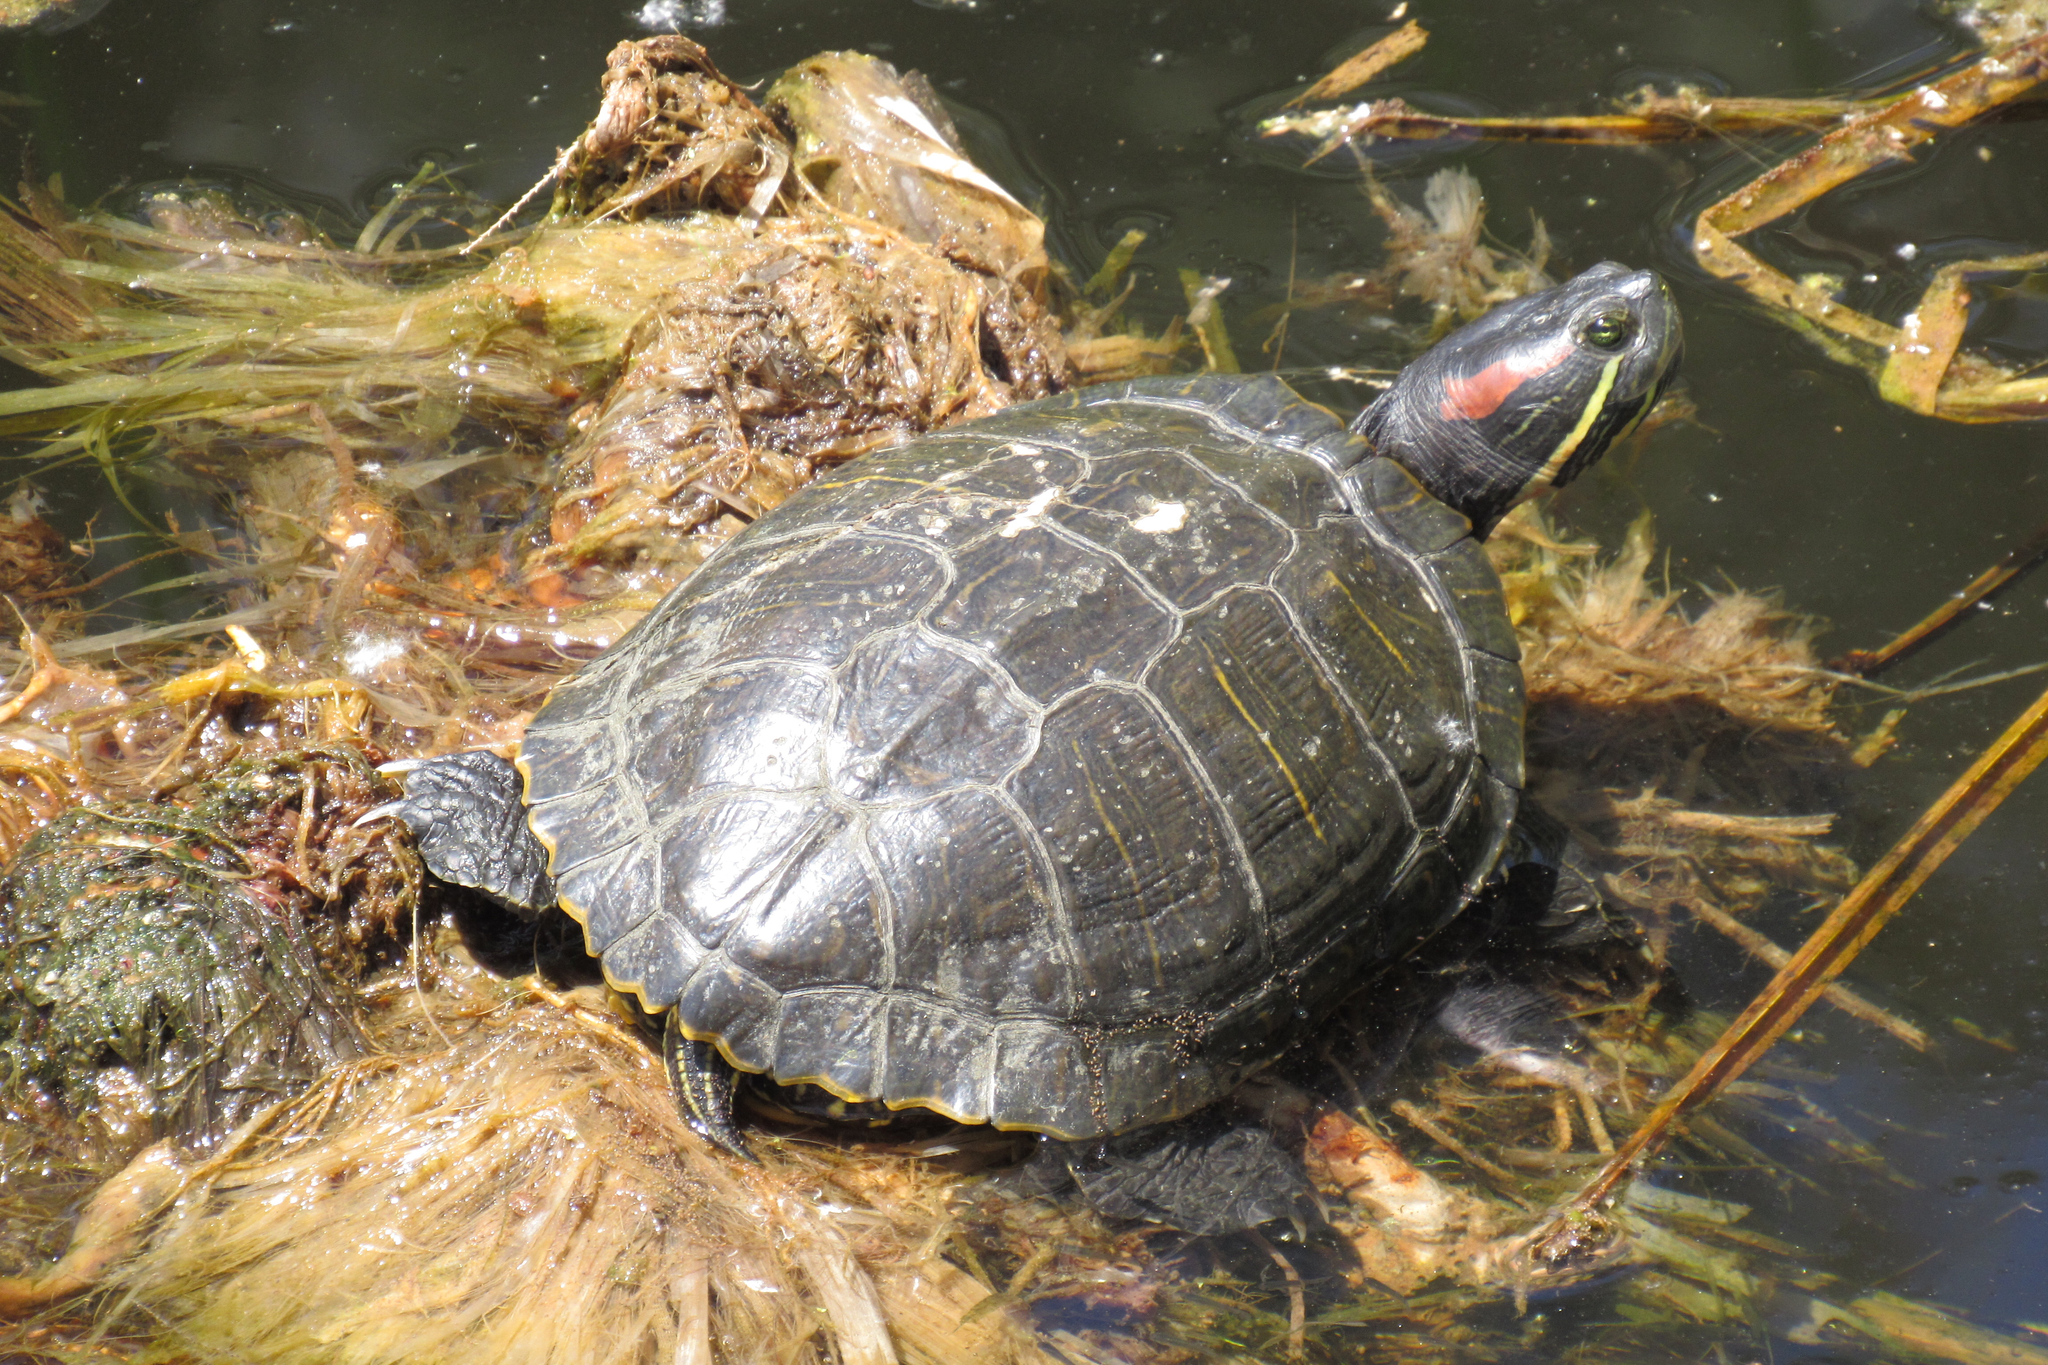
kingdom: Animalia
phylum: Chordata
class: Testudines
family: Emydidae
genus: Trachemys
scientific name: Trachemys scripta
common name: Slider
